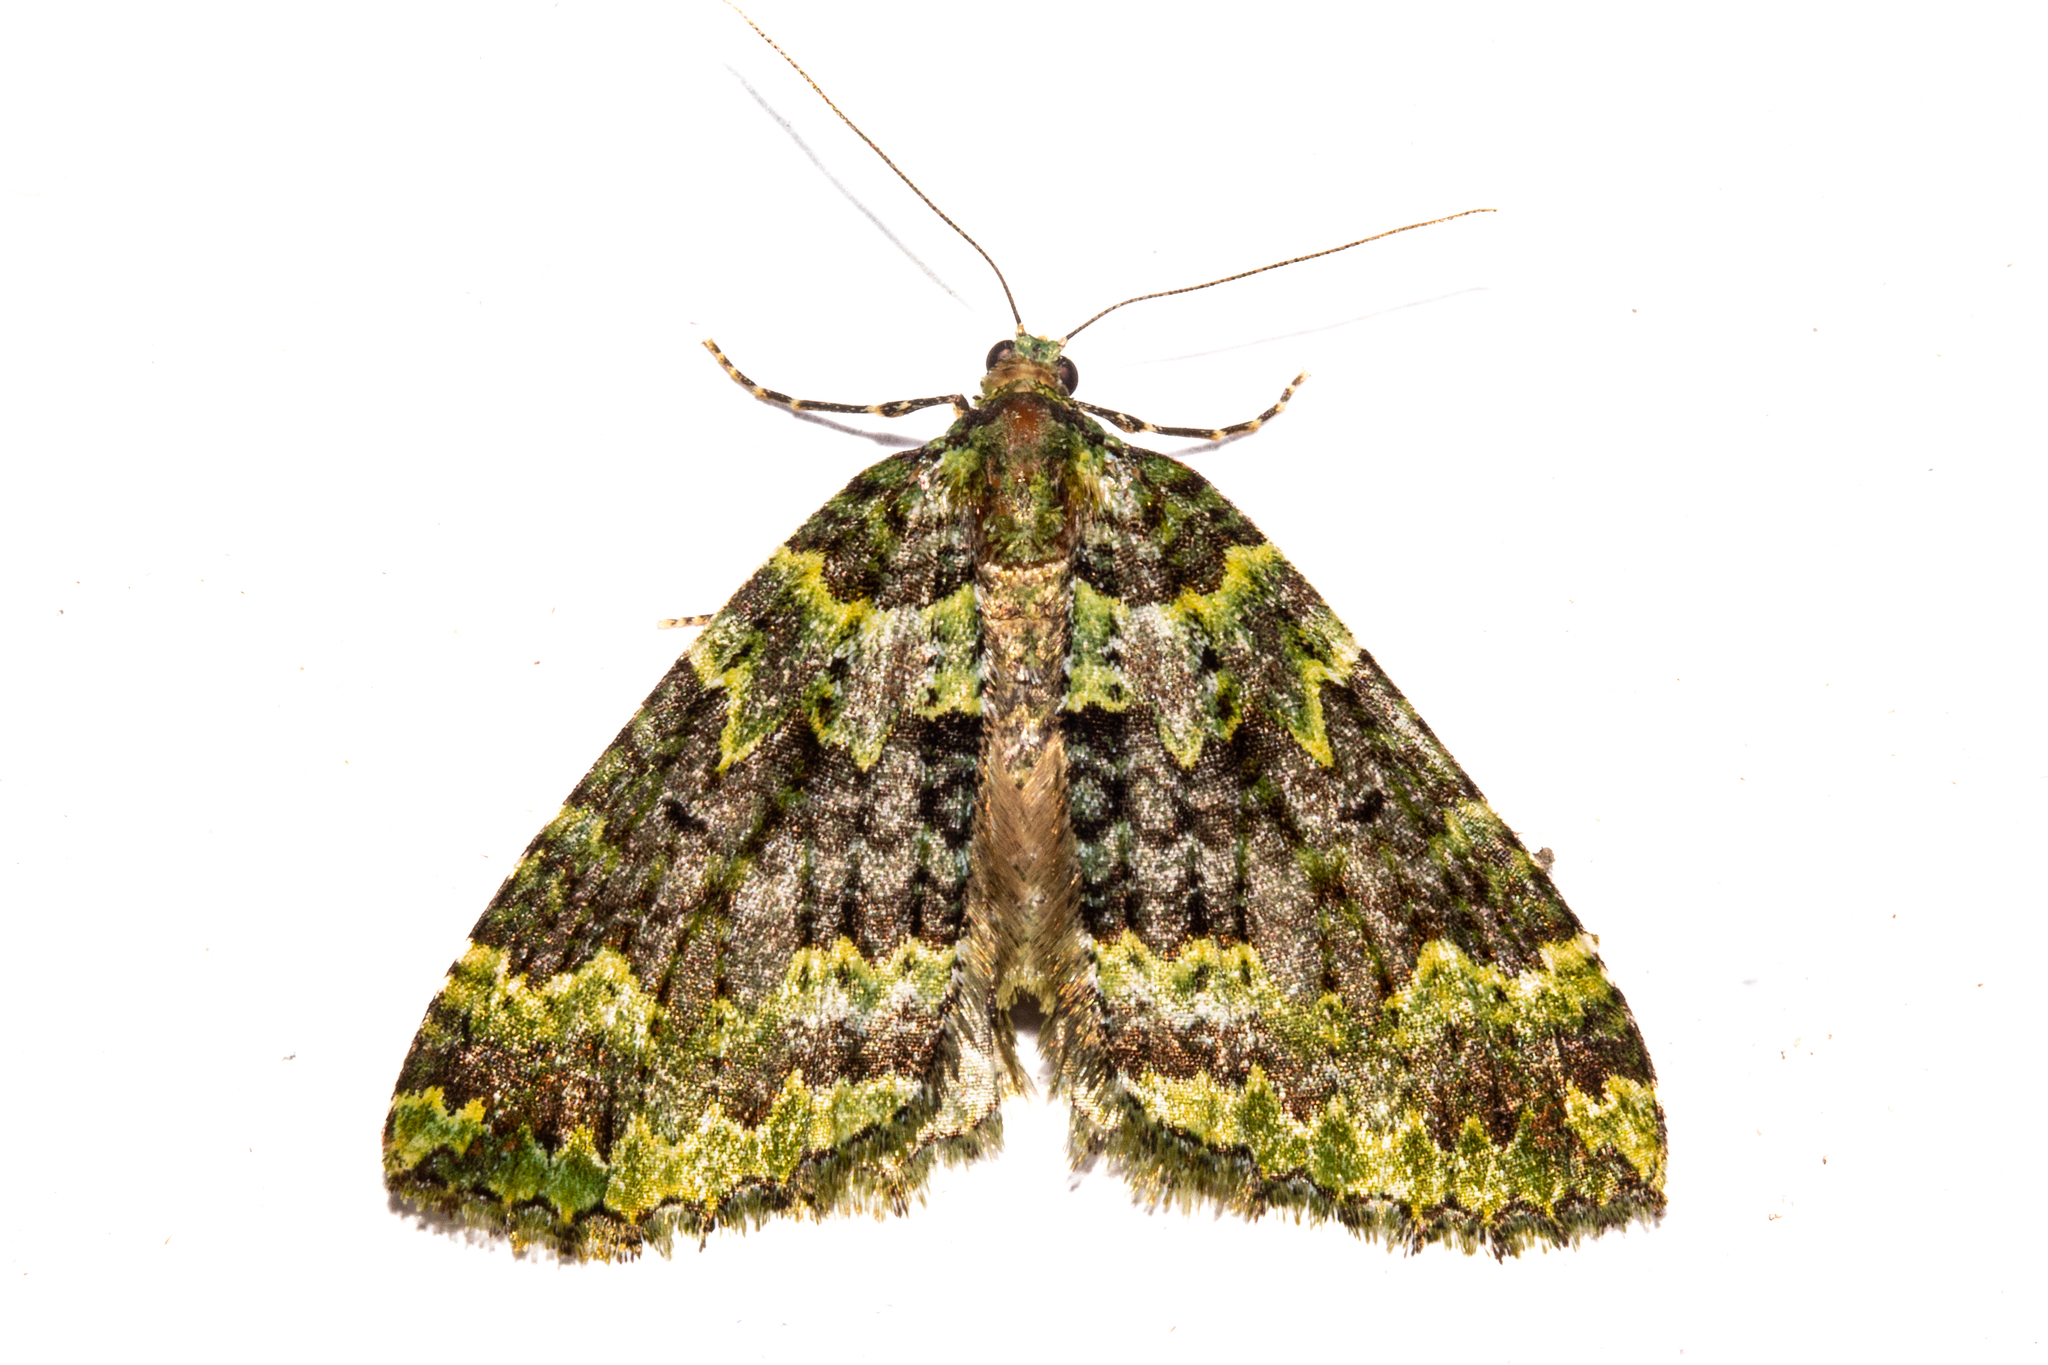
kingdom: Animalia
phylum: Arthropoda
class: Insecta
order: Lepidoptera
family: Geometridae
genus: Austrocidaria
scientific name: Austrocidaria callichlora
